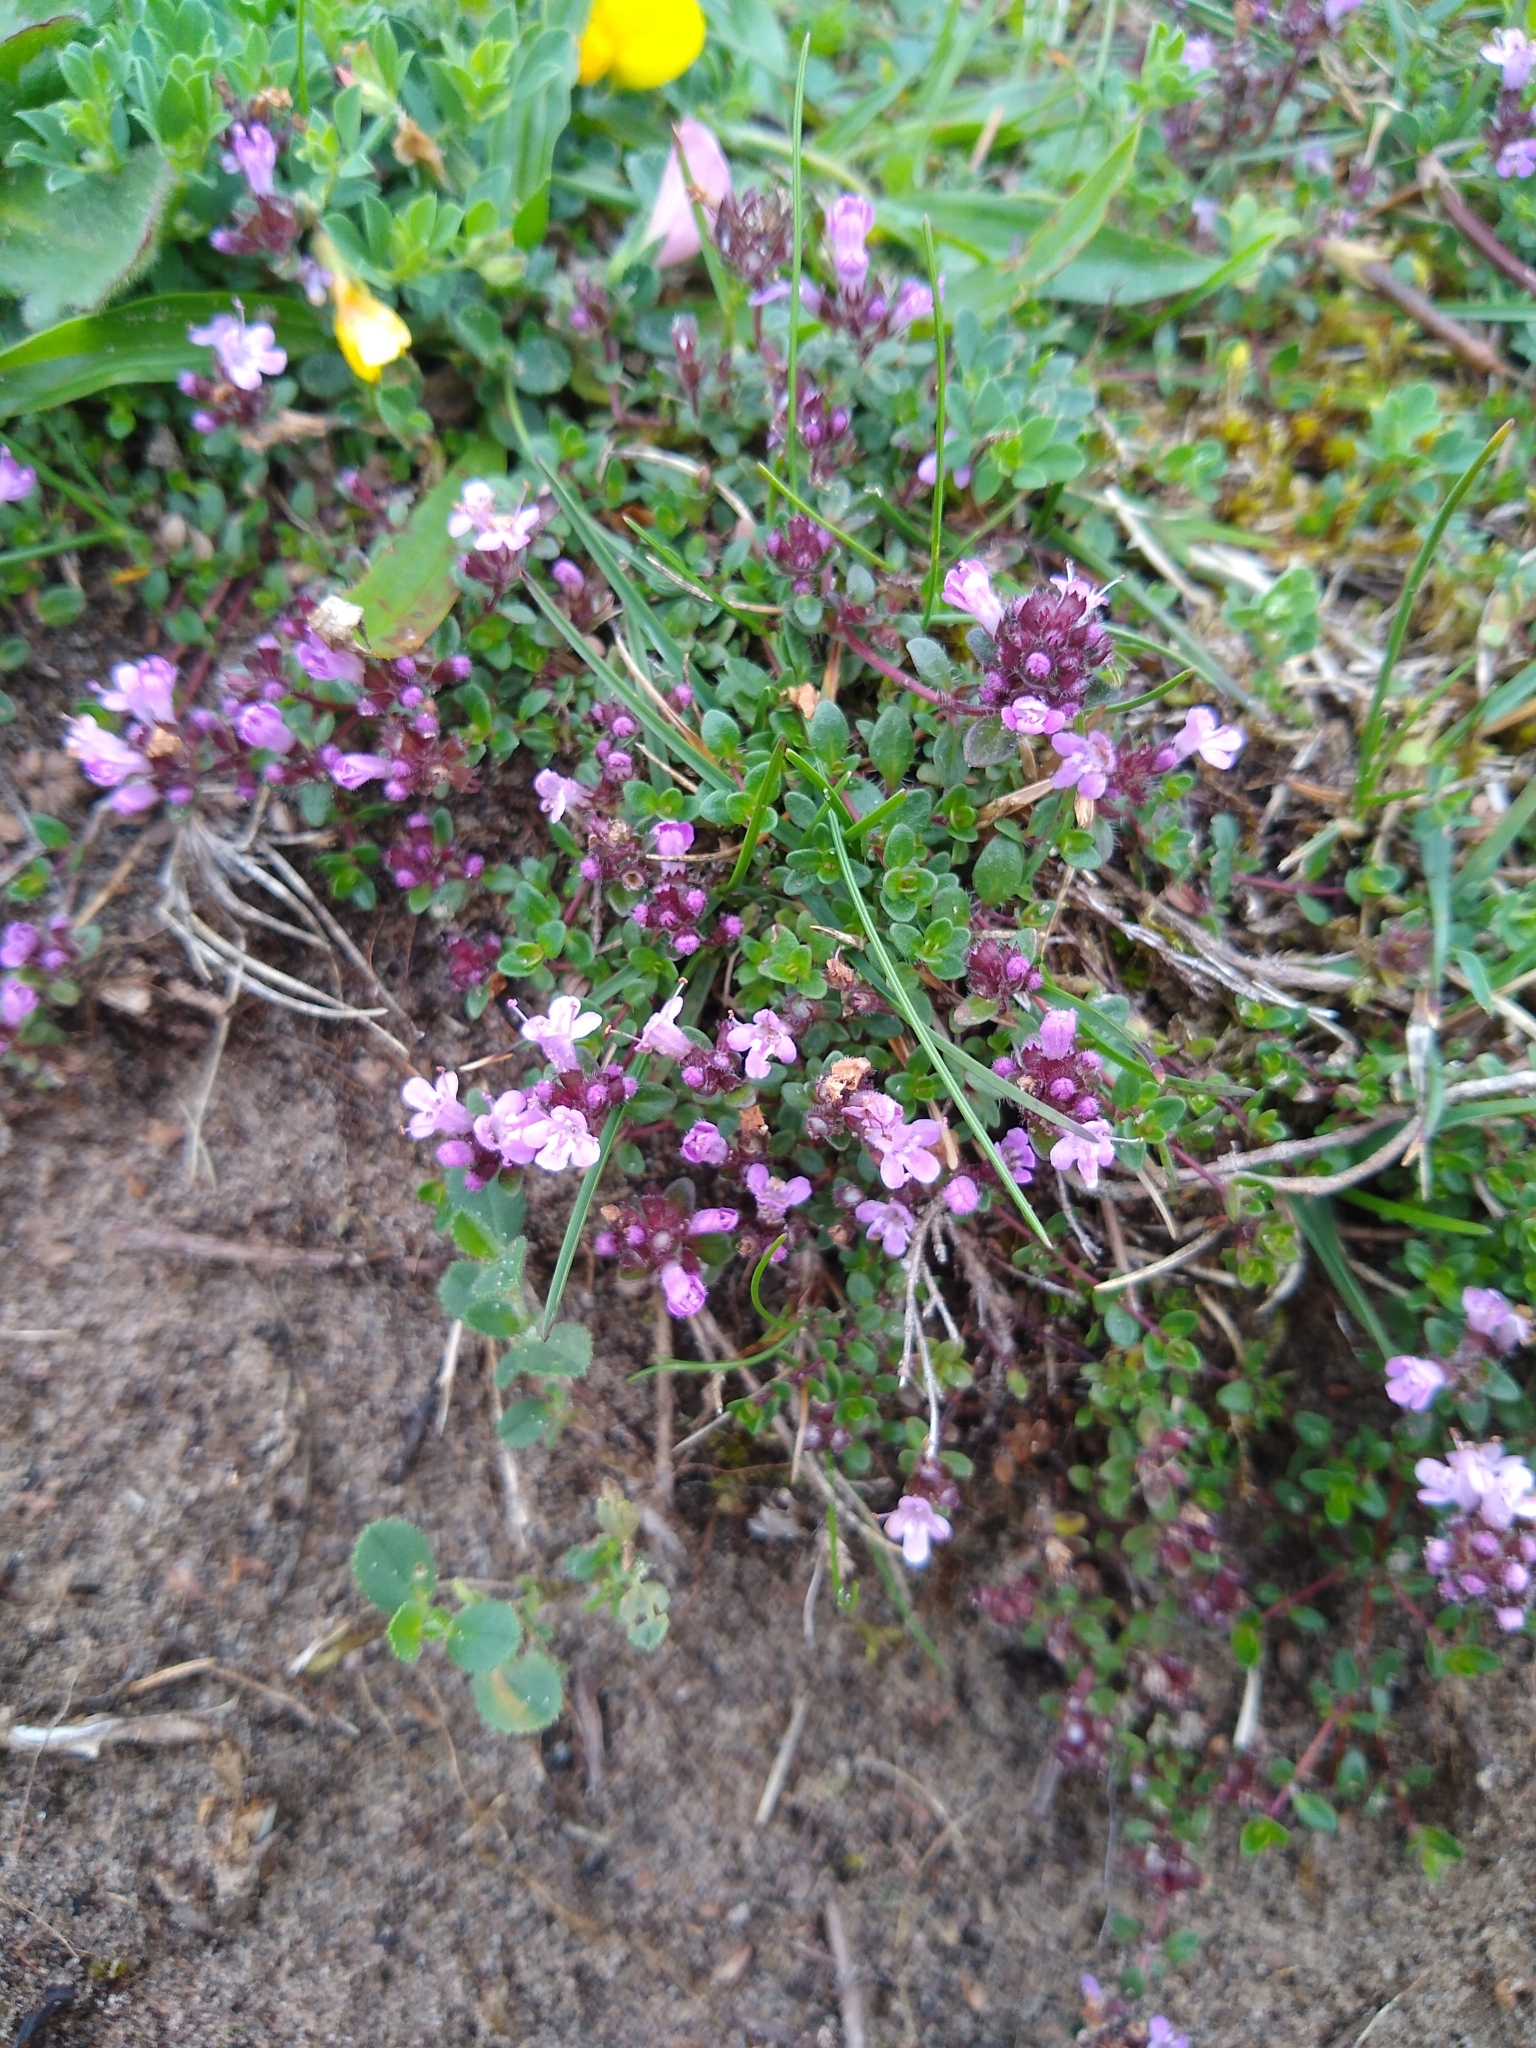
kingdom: Plantae
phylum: Tracheophyta
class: Magnoliopsida
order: Lamiales
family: Lamiaceae
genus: Thymus
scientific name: Thymus praecox
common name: Wild thyme
